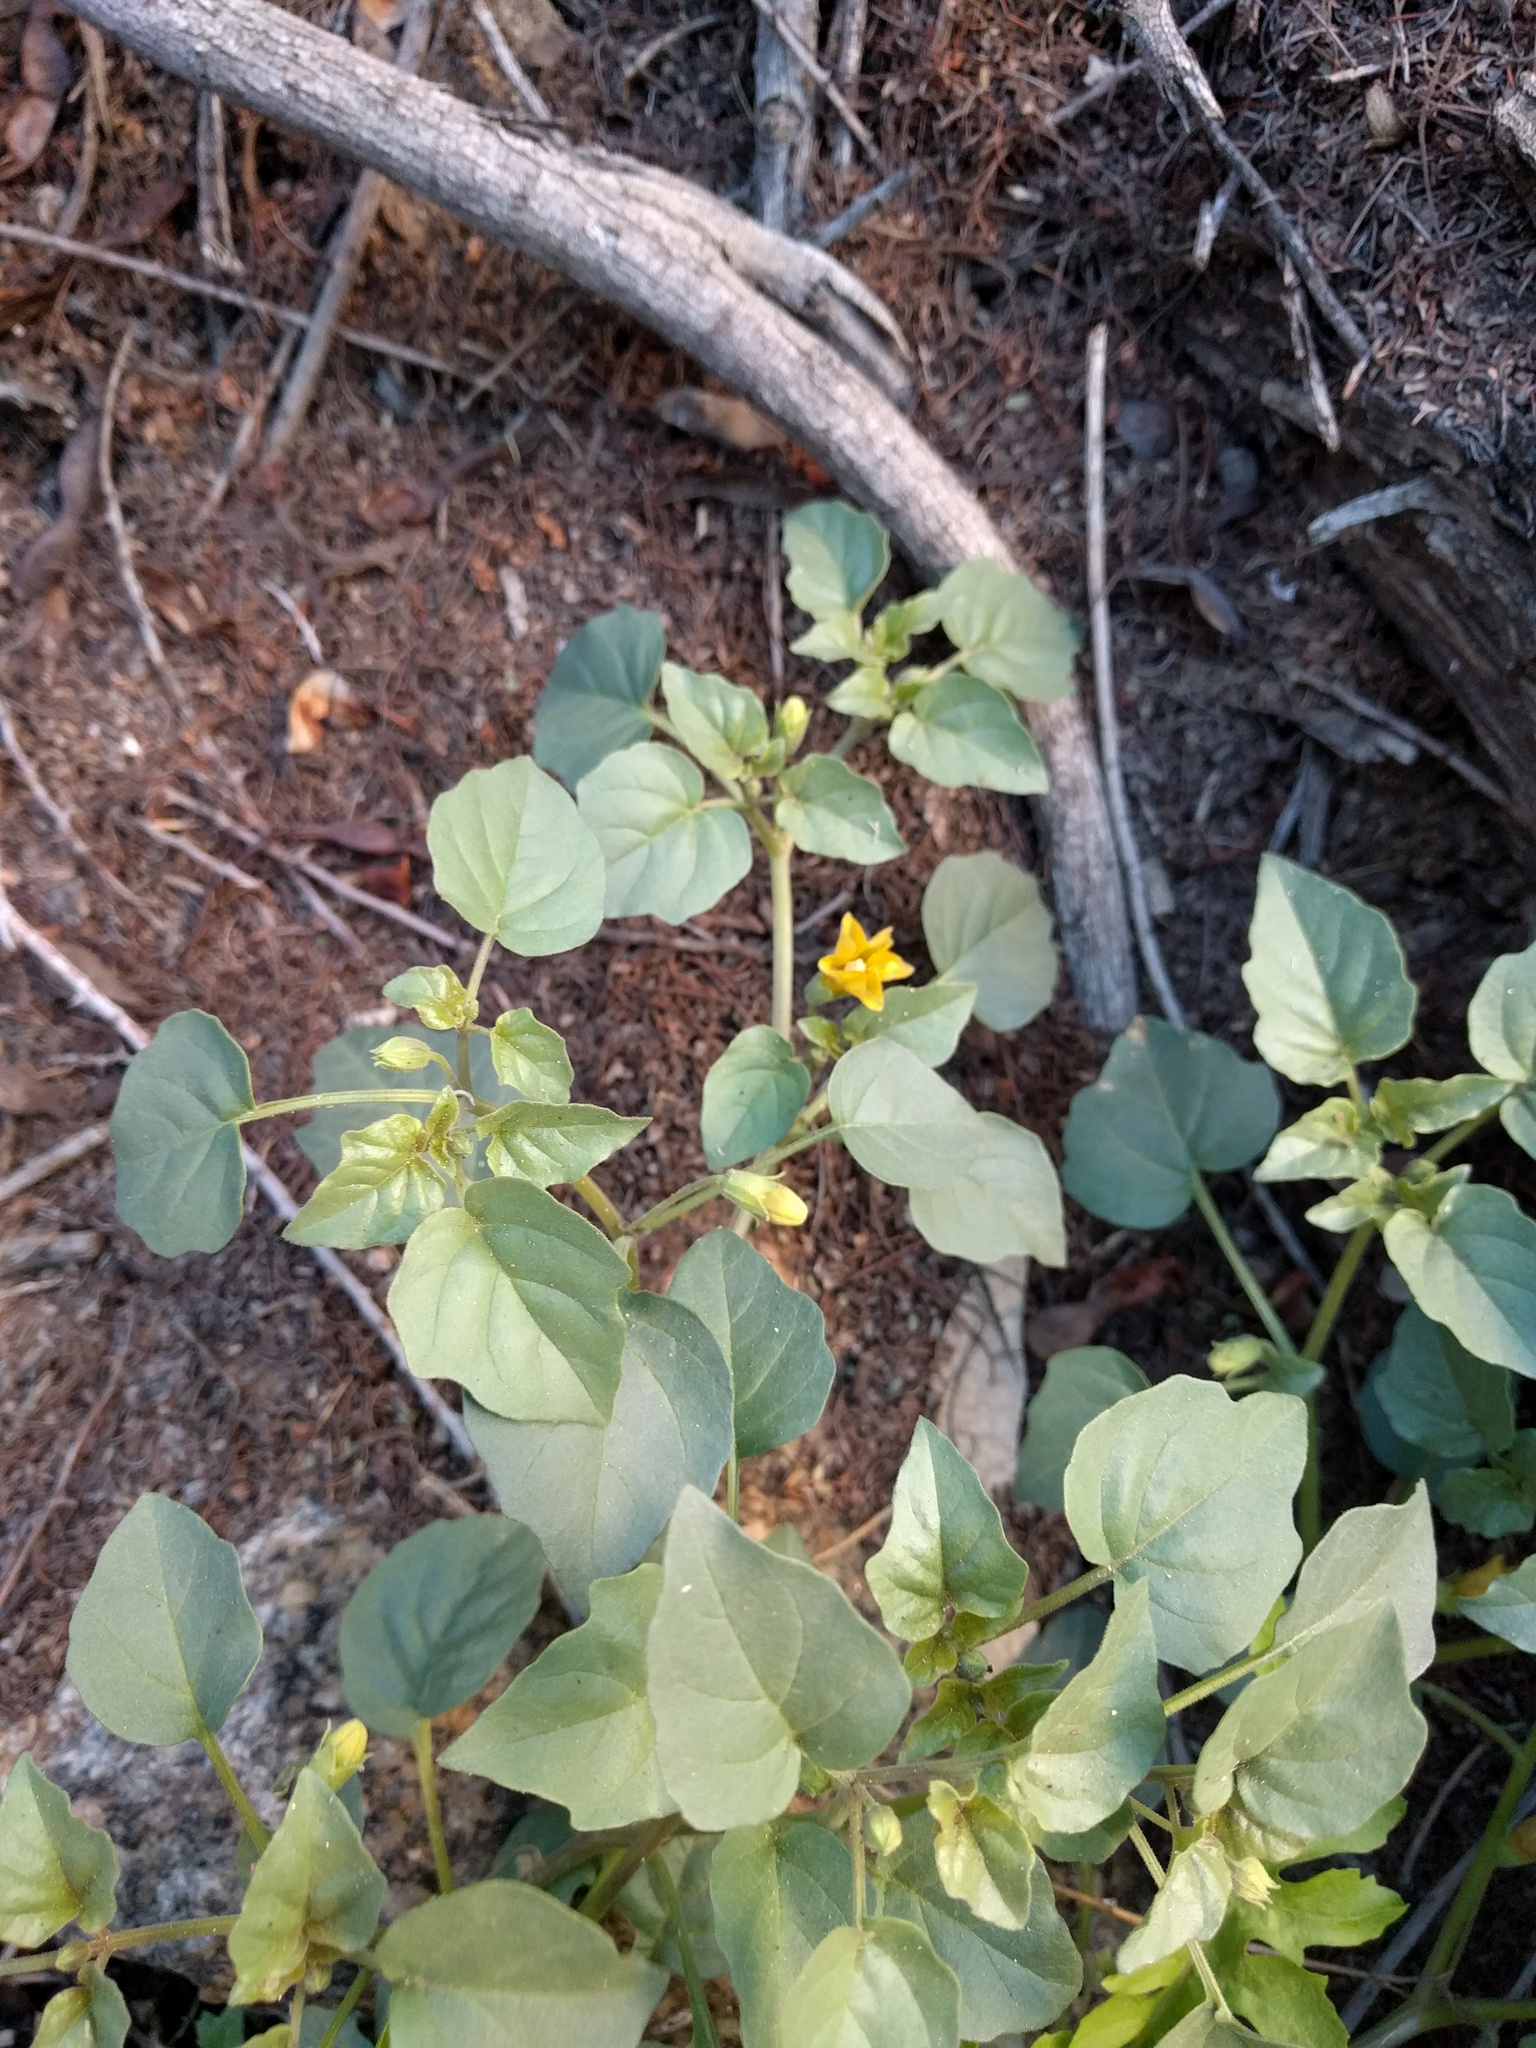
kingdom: Plantae
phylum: Tracheophyta
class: Magnoliopsida
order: Solanales
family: Solanaceae
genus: Physalis
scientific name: Physalis crassifolia
